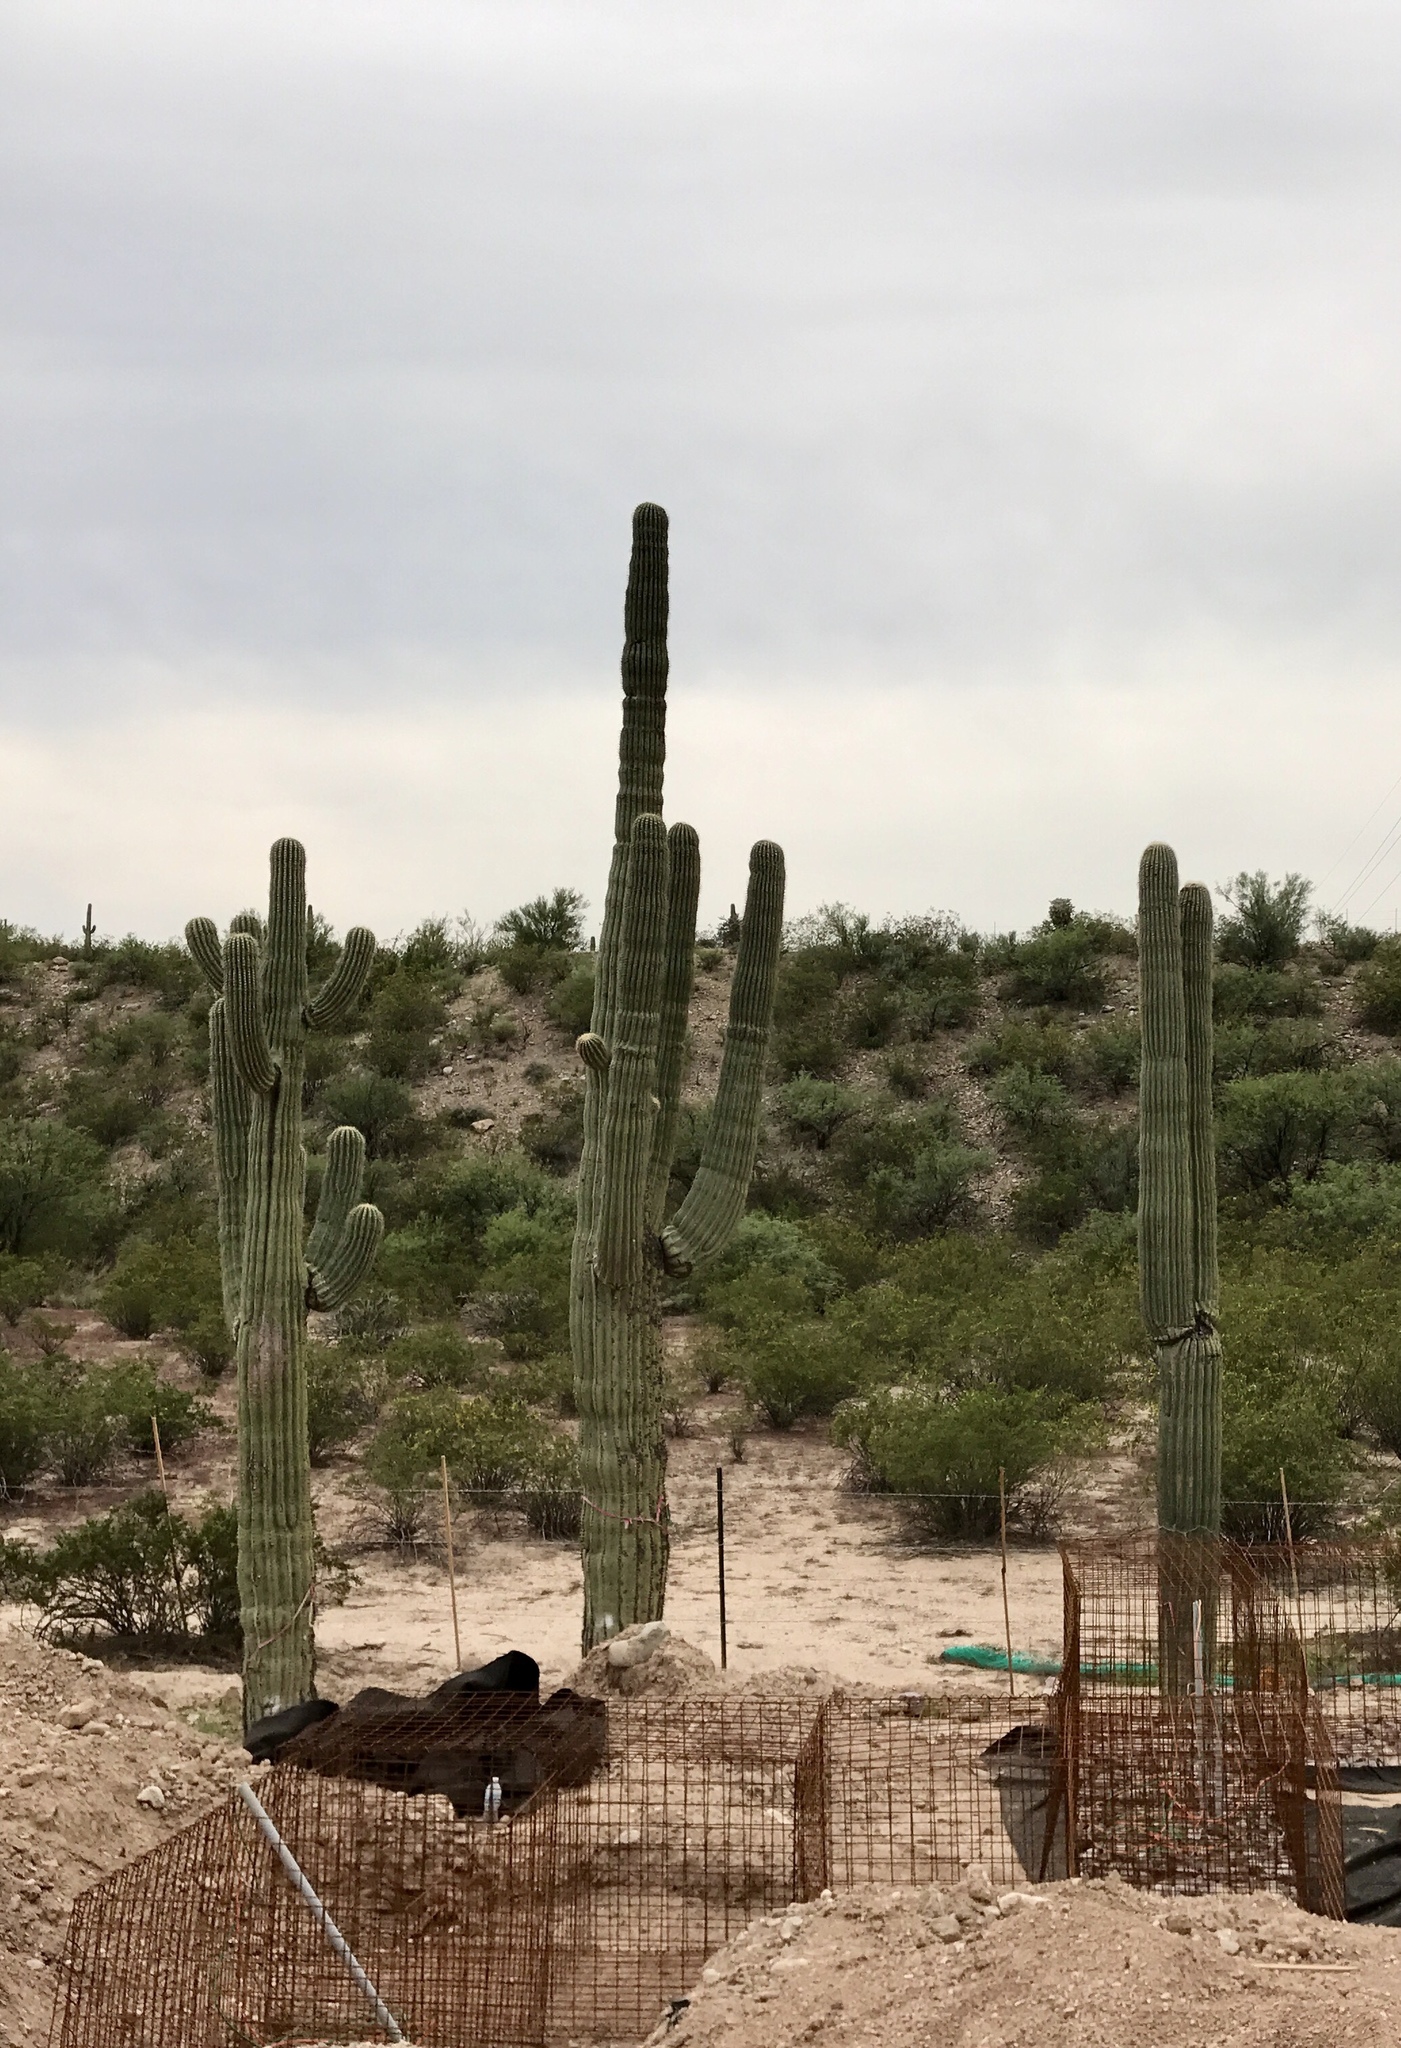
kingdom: Plantae
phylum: Tracheophyta
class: Magnoliopsida
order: Caryophyllales
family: Cactaceae
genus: Carnegiea
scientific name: Carnegiea gigantea
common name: Saguaro
